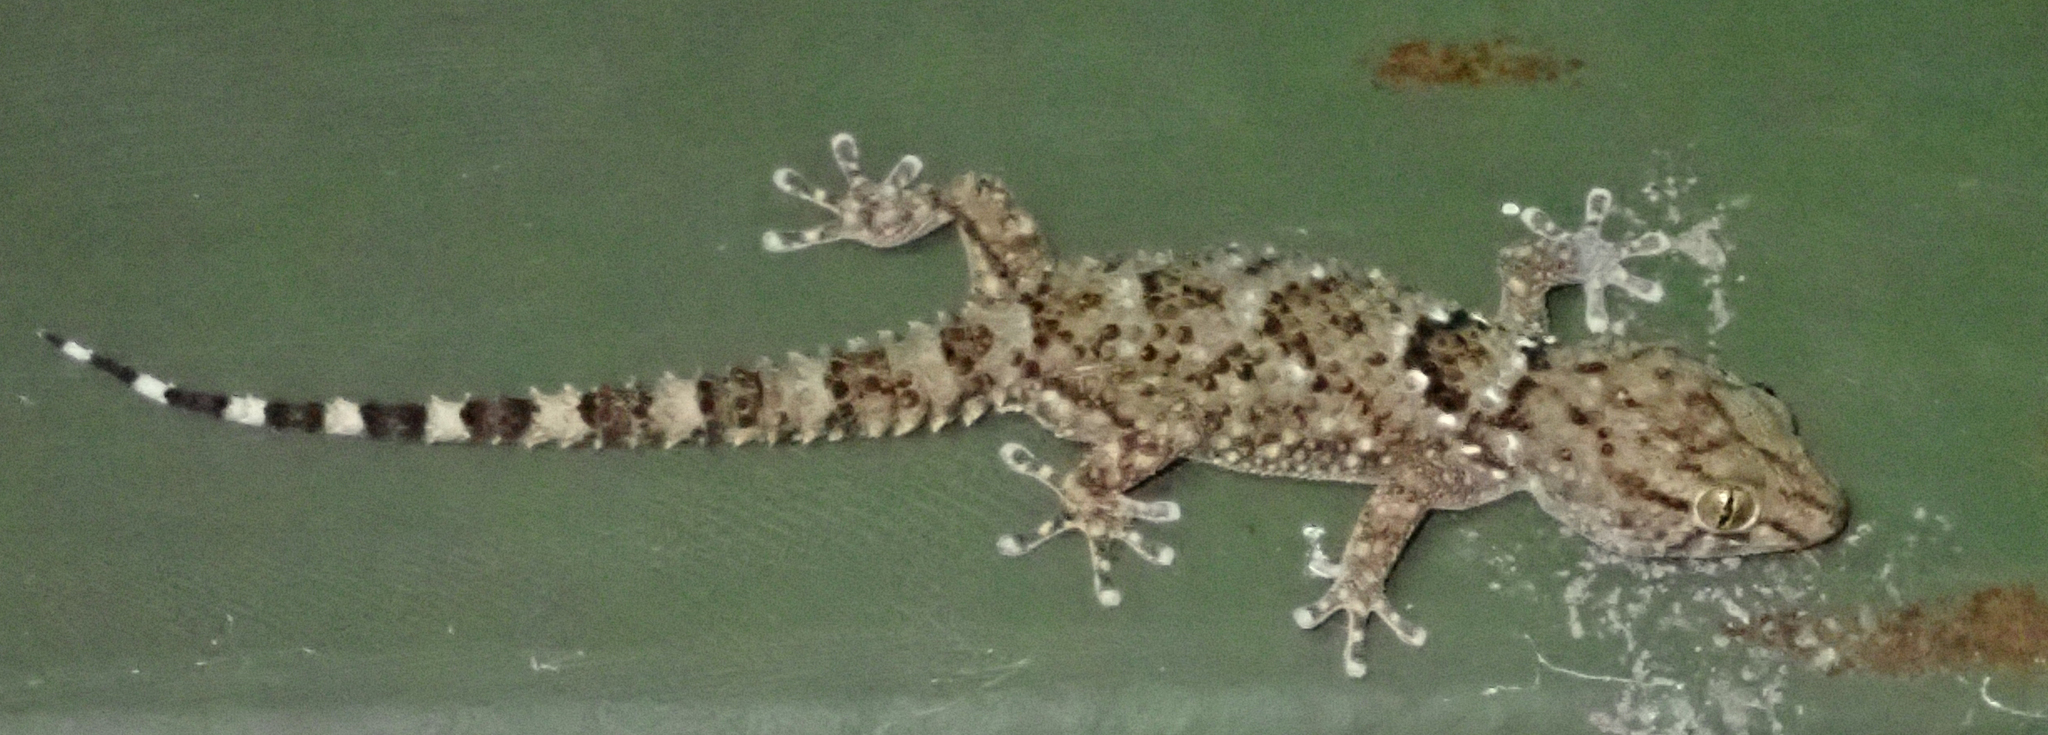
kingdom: Animalia
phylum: Chordata
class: Squamata
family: Gekkonidae
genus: Chondrodactylus
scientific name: Chondrodactylus laevigatus
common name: Fischer's thick-toed gecko
